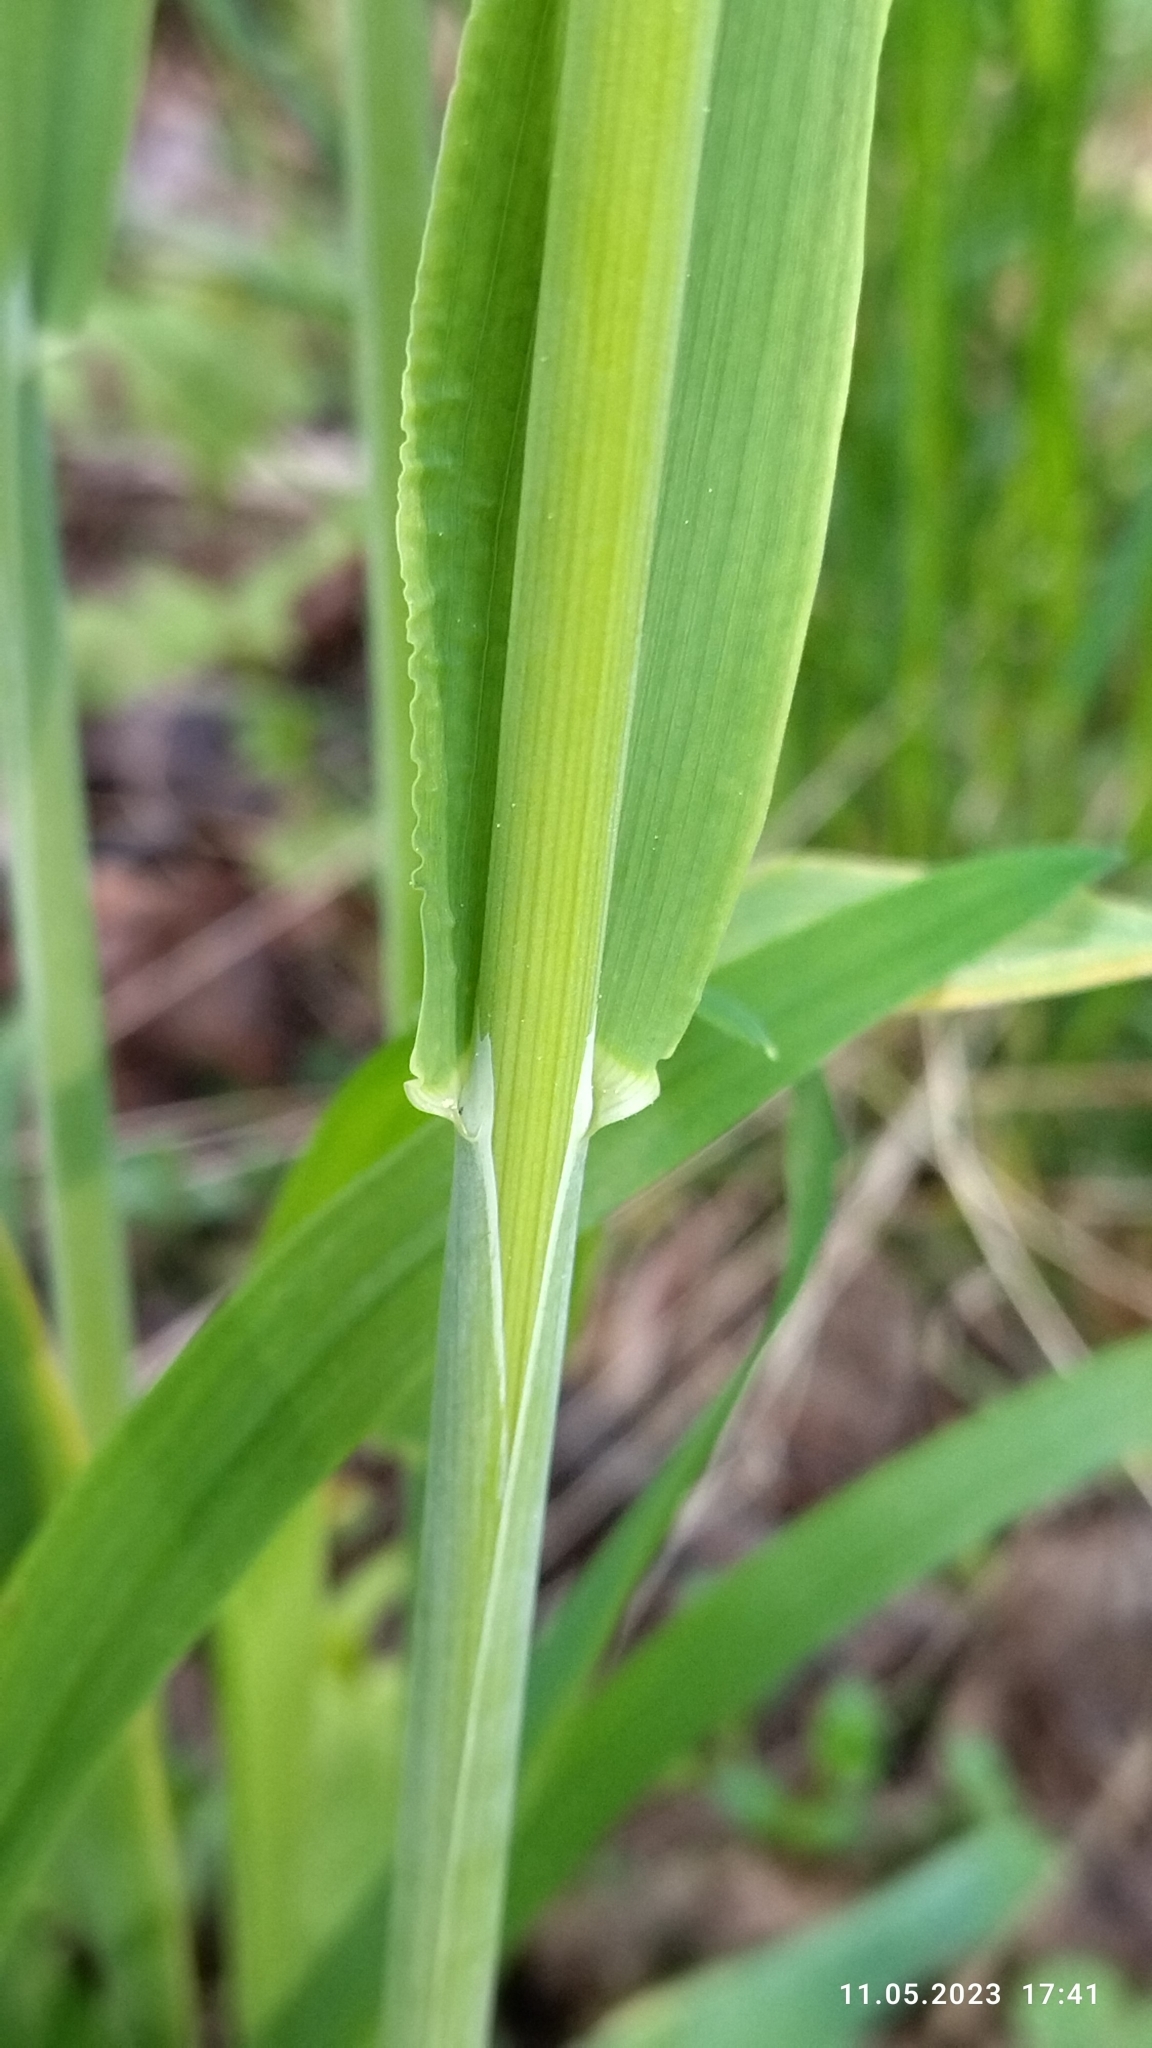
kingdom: Plantae
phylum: Tracheophyta
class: Liliopsida
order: Poales
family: Poaceae
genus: Milium
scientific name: Milium effusum
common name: Wood millet
